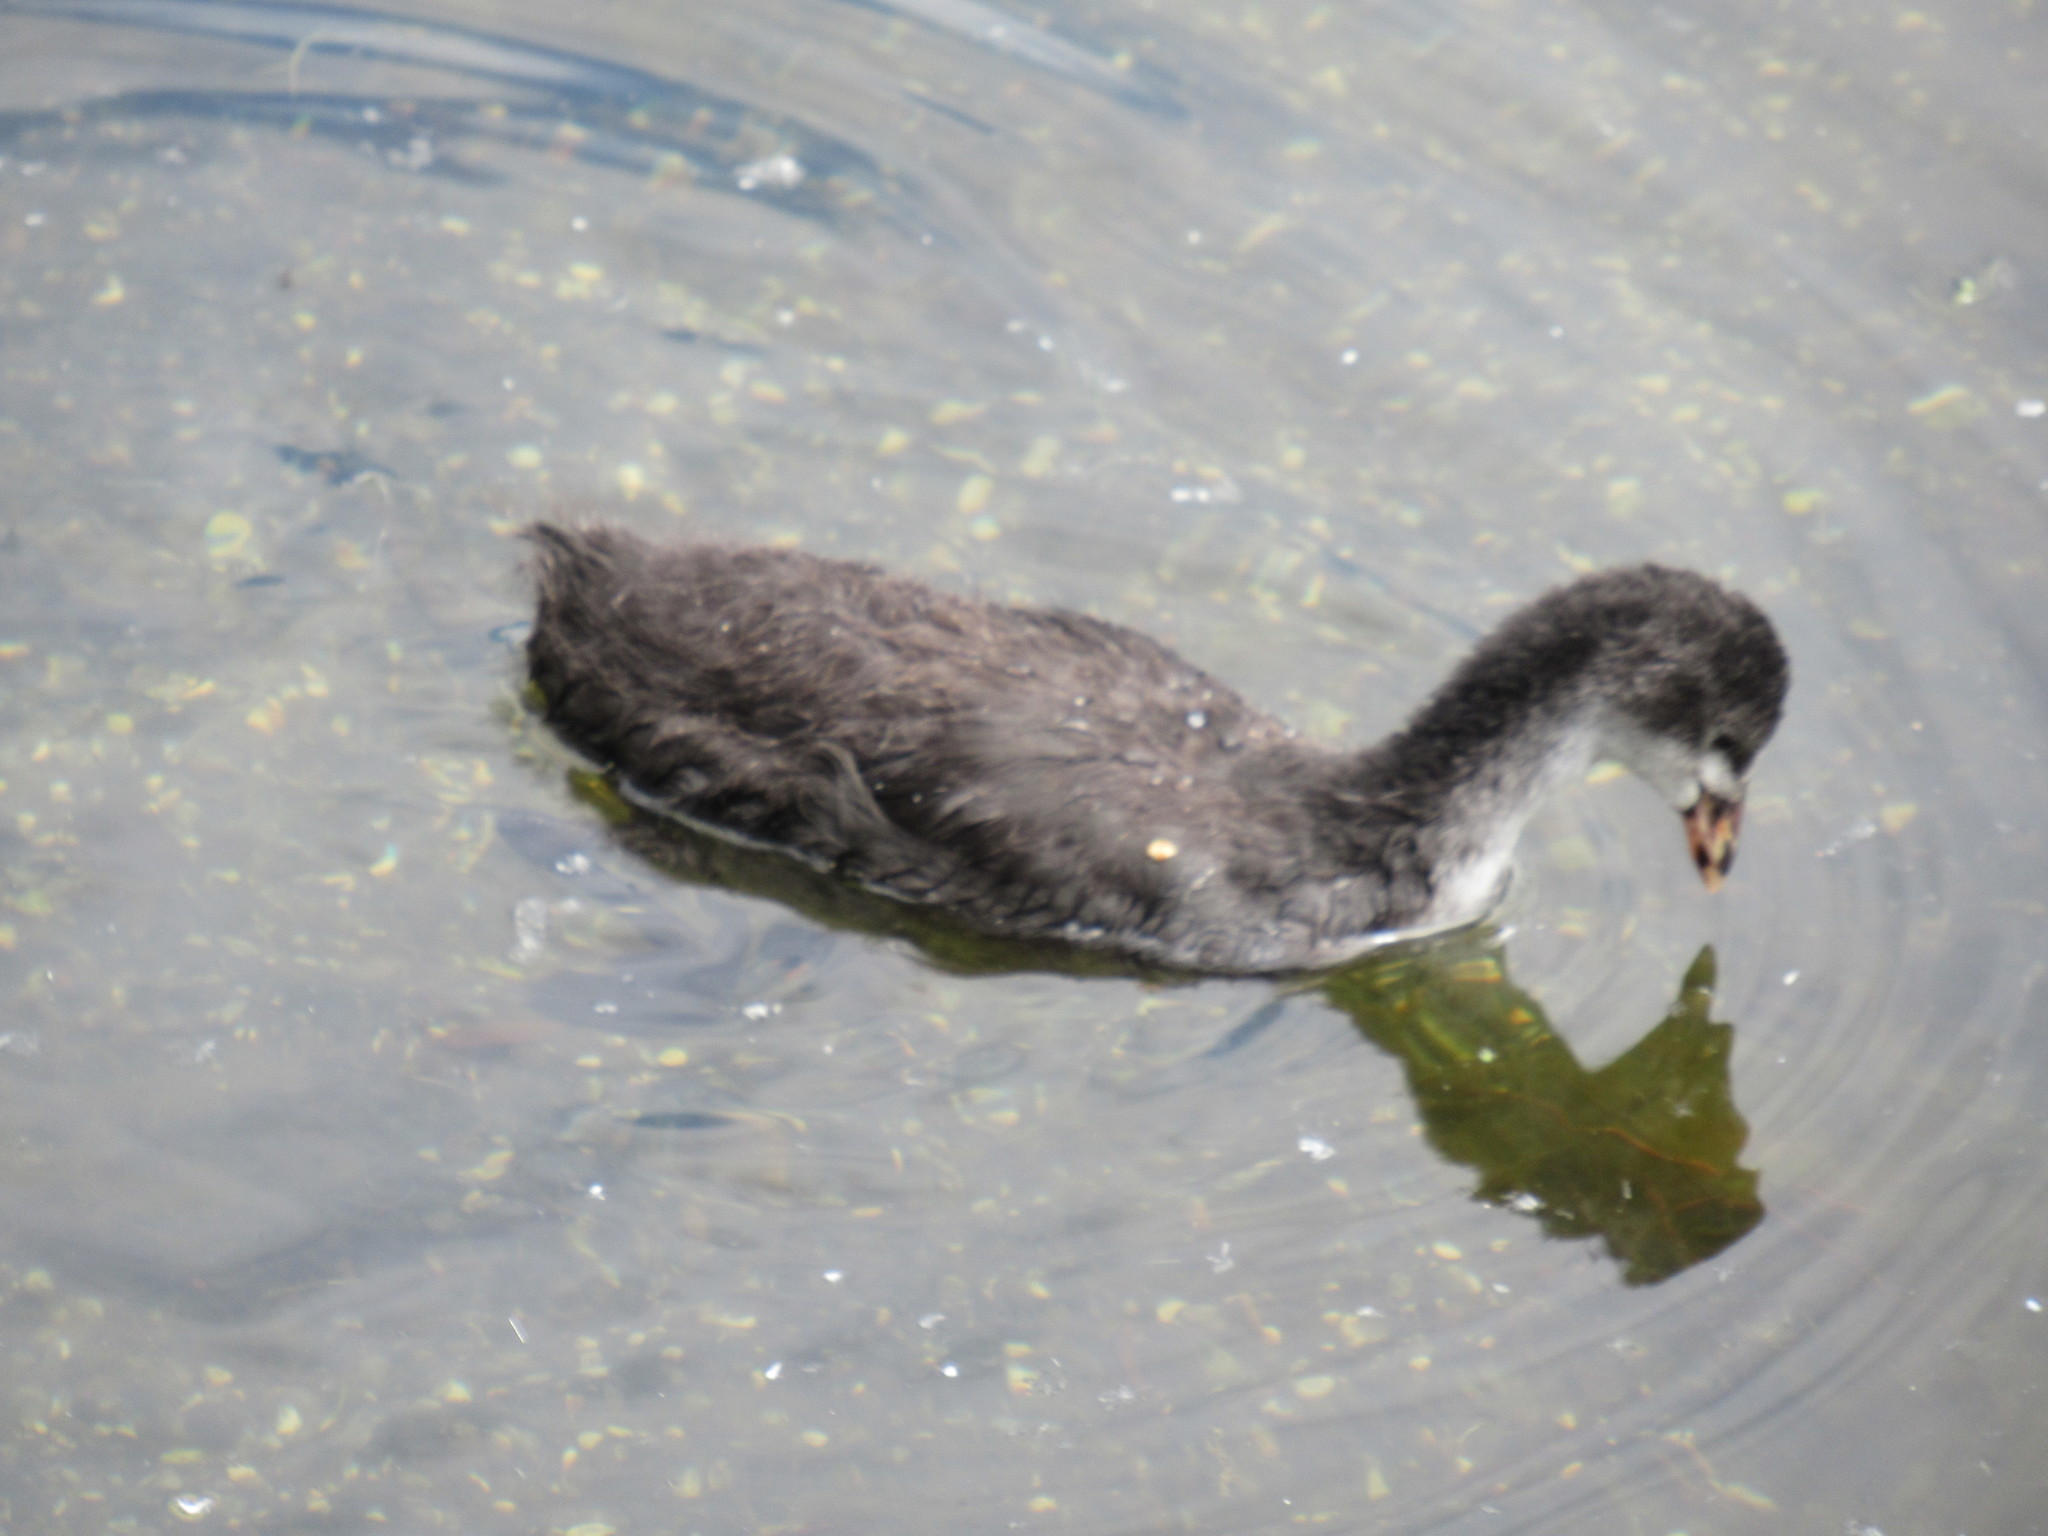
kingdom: Animalia
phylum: Chordata
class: Aves
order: Gruiformes
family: Rallidae
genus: Fulica
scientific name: Fulica atra
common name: Eurasian coot
